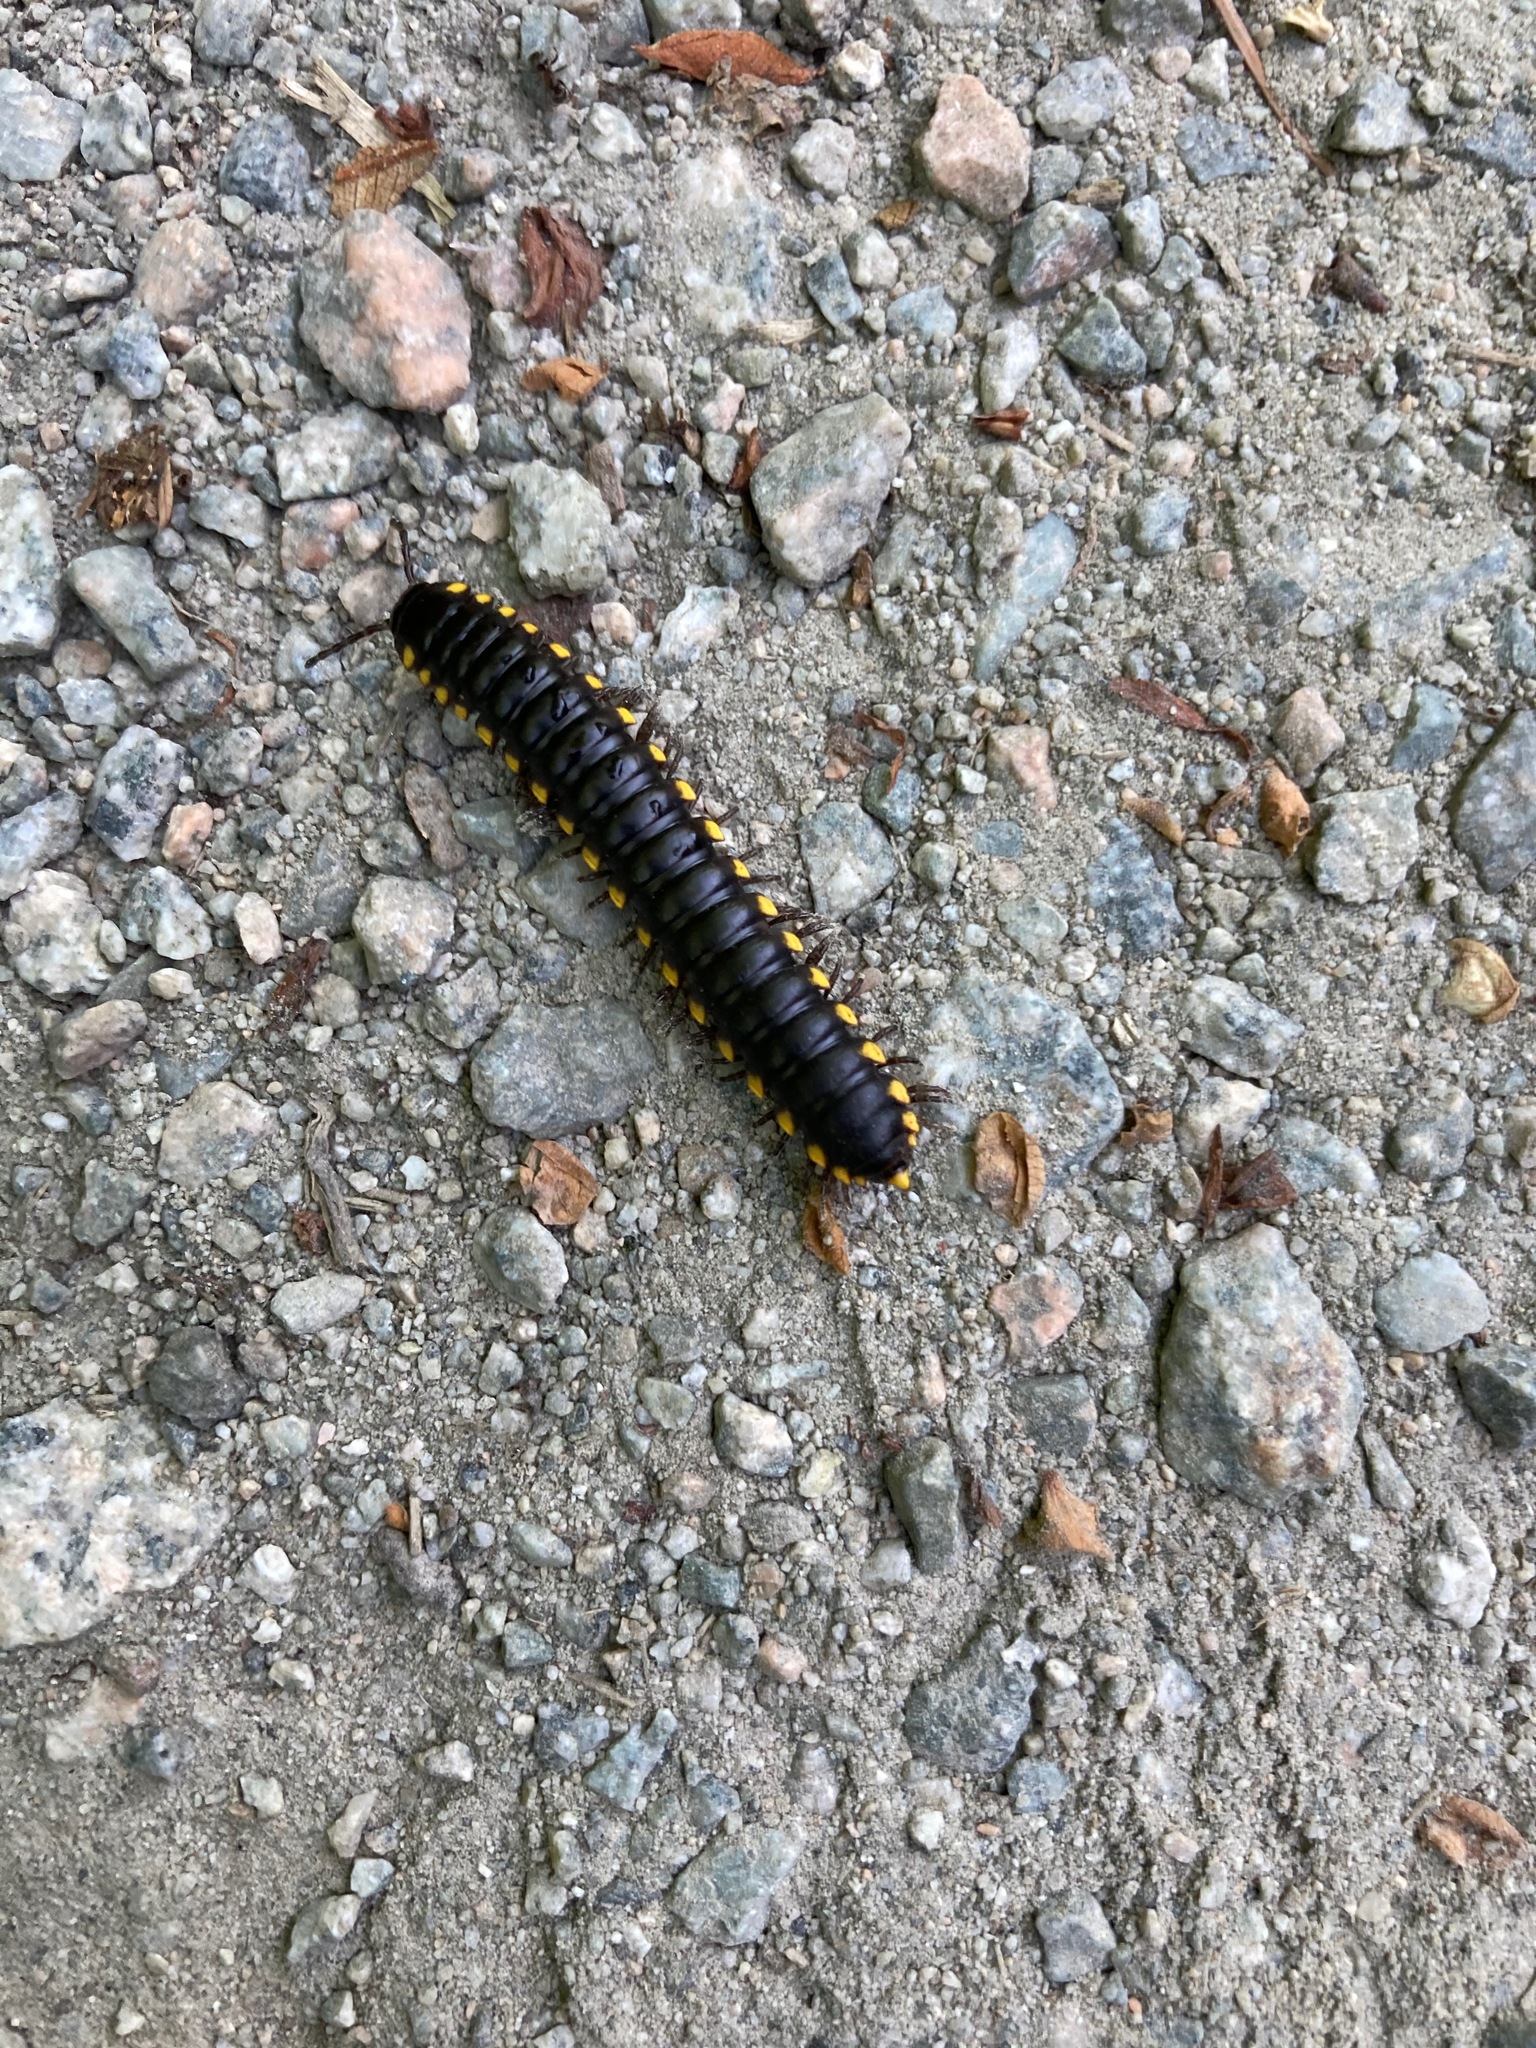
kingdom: Animalia
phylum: Arthropoda
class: Diplopoda
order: Polydesmida
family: Xystodesmidae
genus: Harpaphe
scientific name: Harpaphe haydeniana
